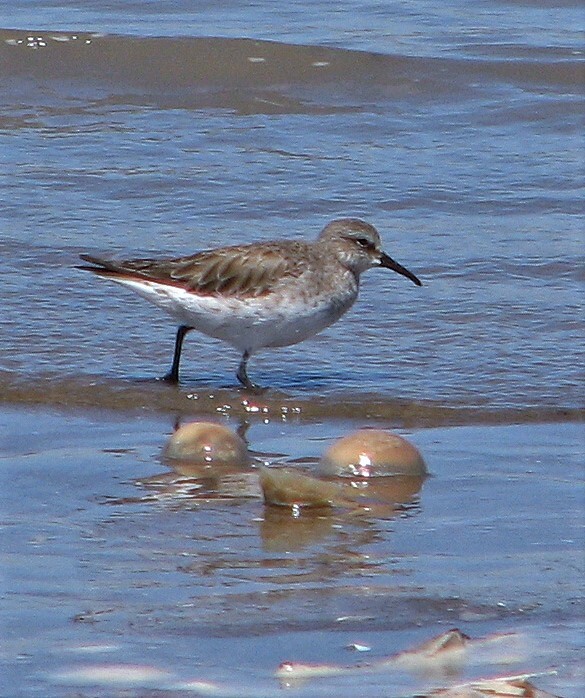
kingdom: Animalia
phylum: Chordata
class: Aves
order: Charadriiformes
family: Scolopacidae
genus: Calidris
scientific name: Calidris fuscicollis
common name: White-rumped sandpiper
